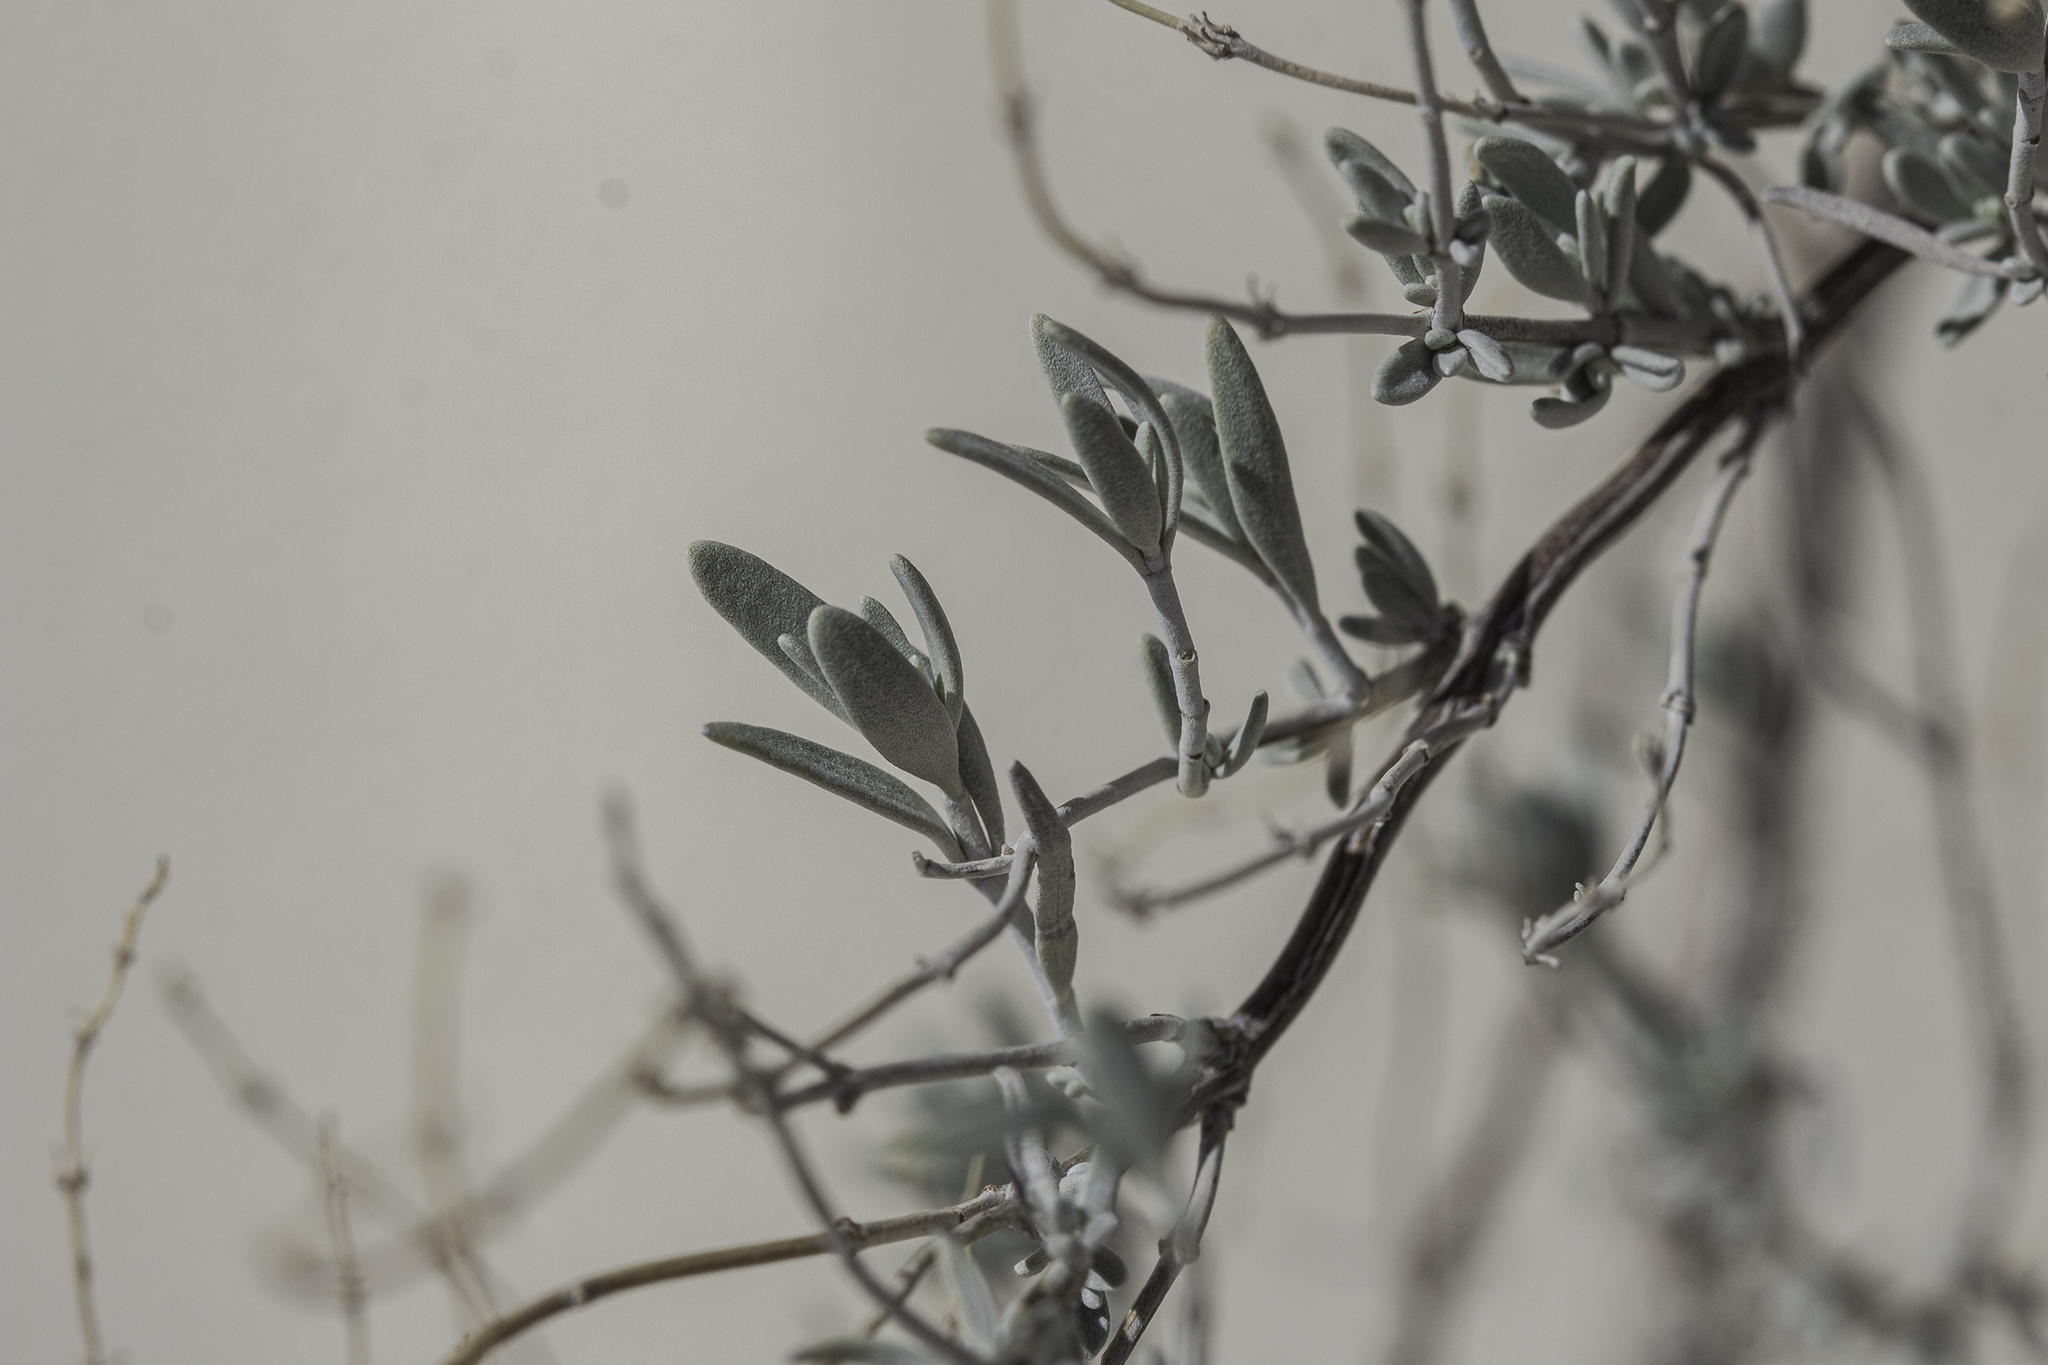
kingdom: Plantae
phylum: Tracheophyta
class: Magnoliopsida
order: Lamiales
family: Lamiaceae
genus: Poliomintha
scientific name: Poliomintha incana
